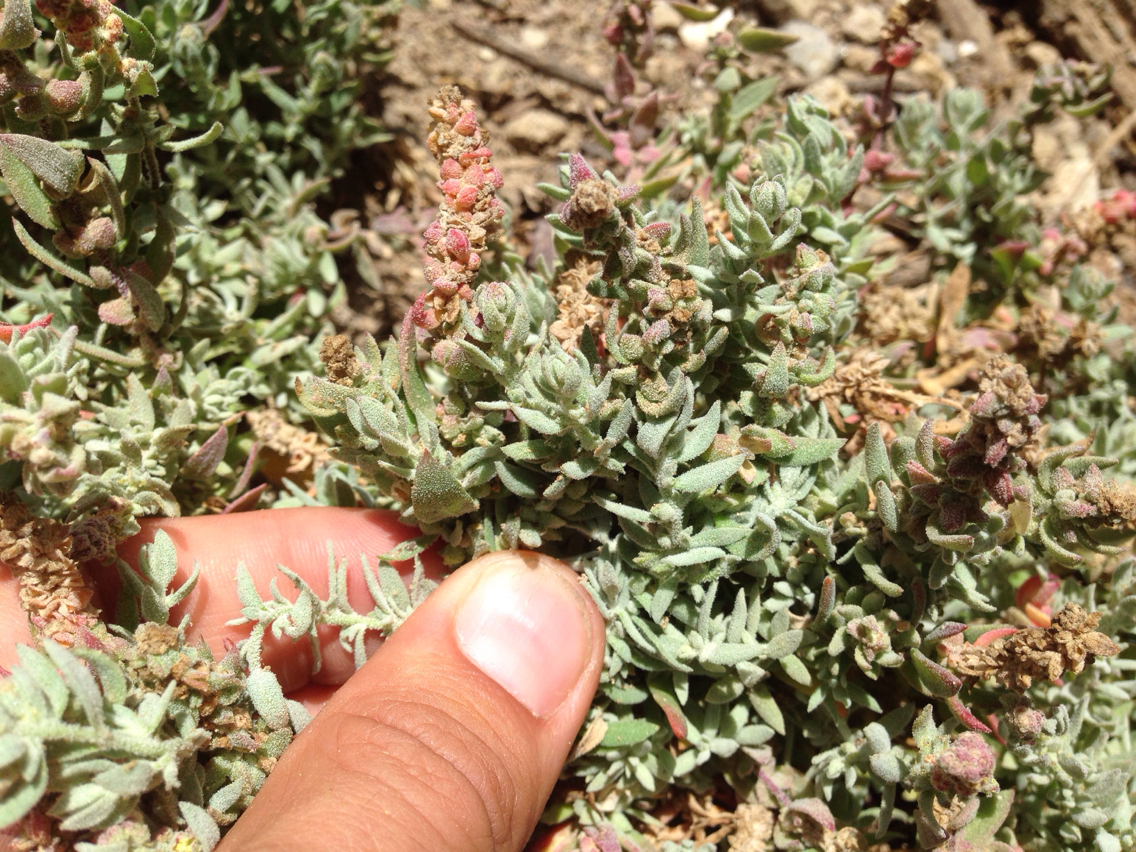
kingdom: Plantae
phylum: Tracheophyta
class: Magnoliopsida
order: Caryophyllales
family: Amaranthaceae
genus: Extriplex
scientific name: Extriplex californica
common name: California saltbush
